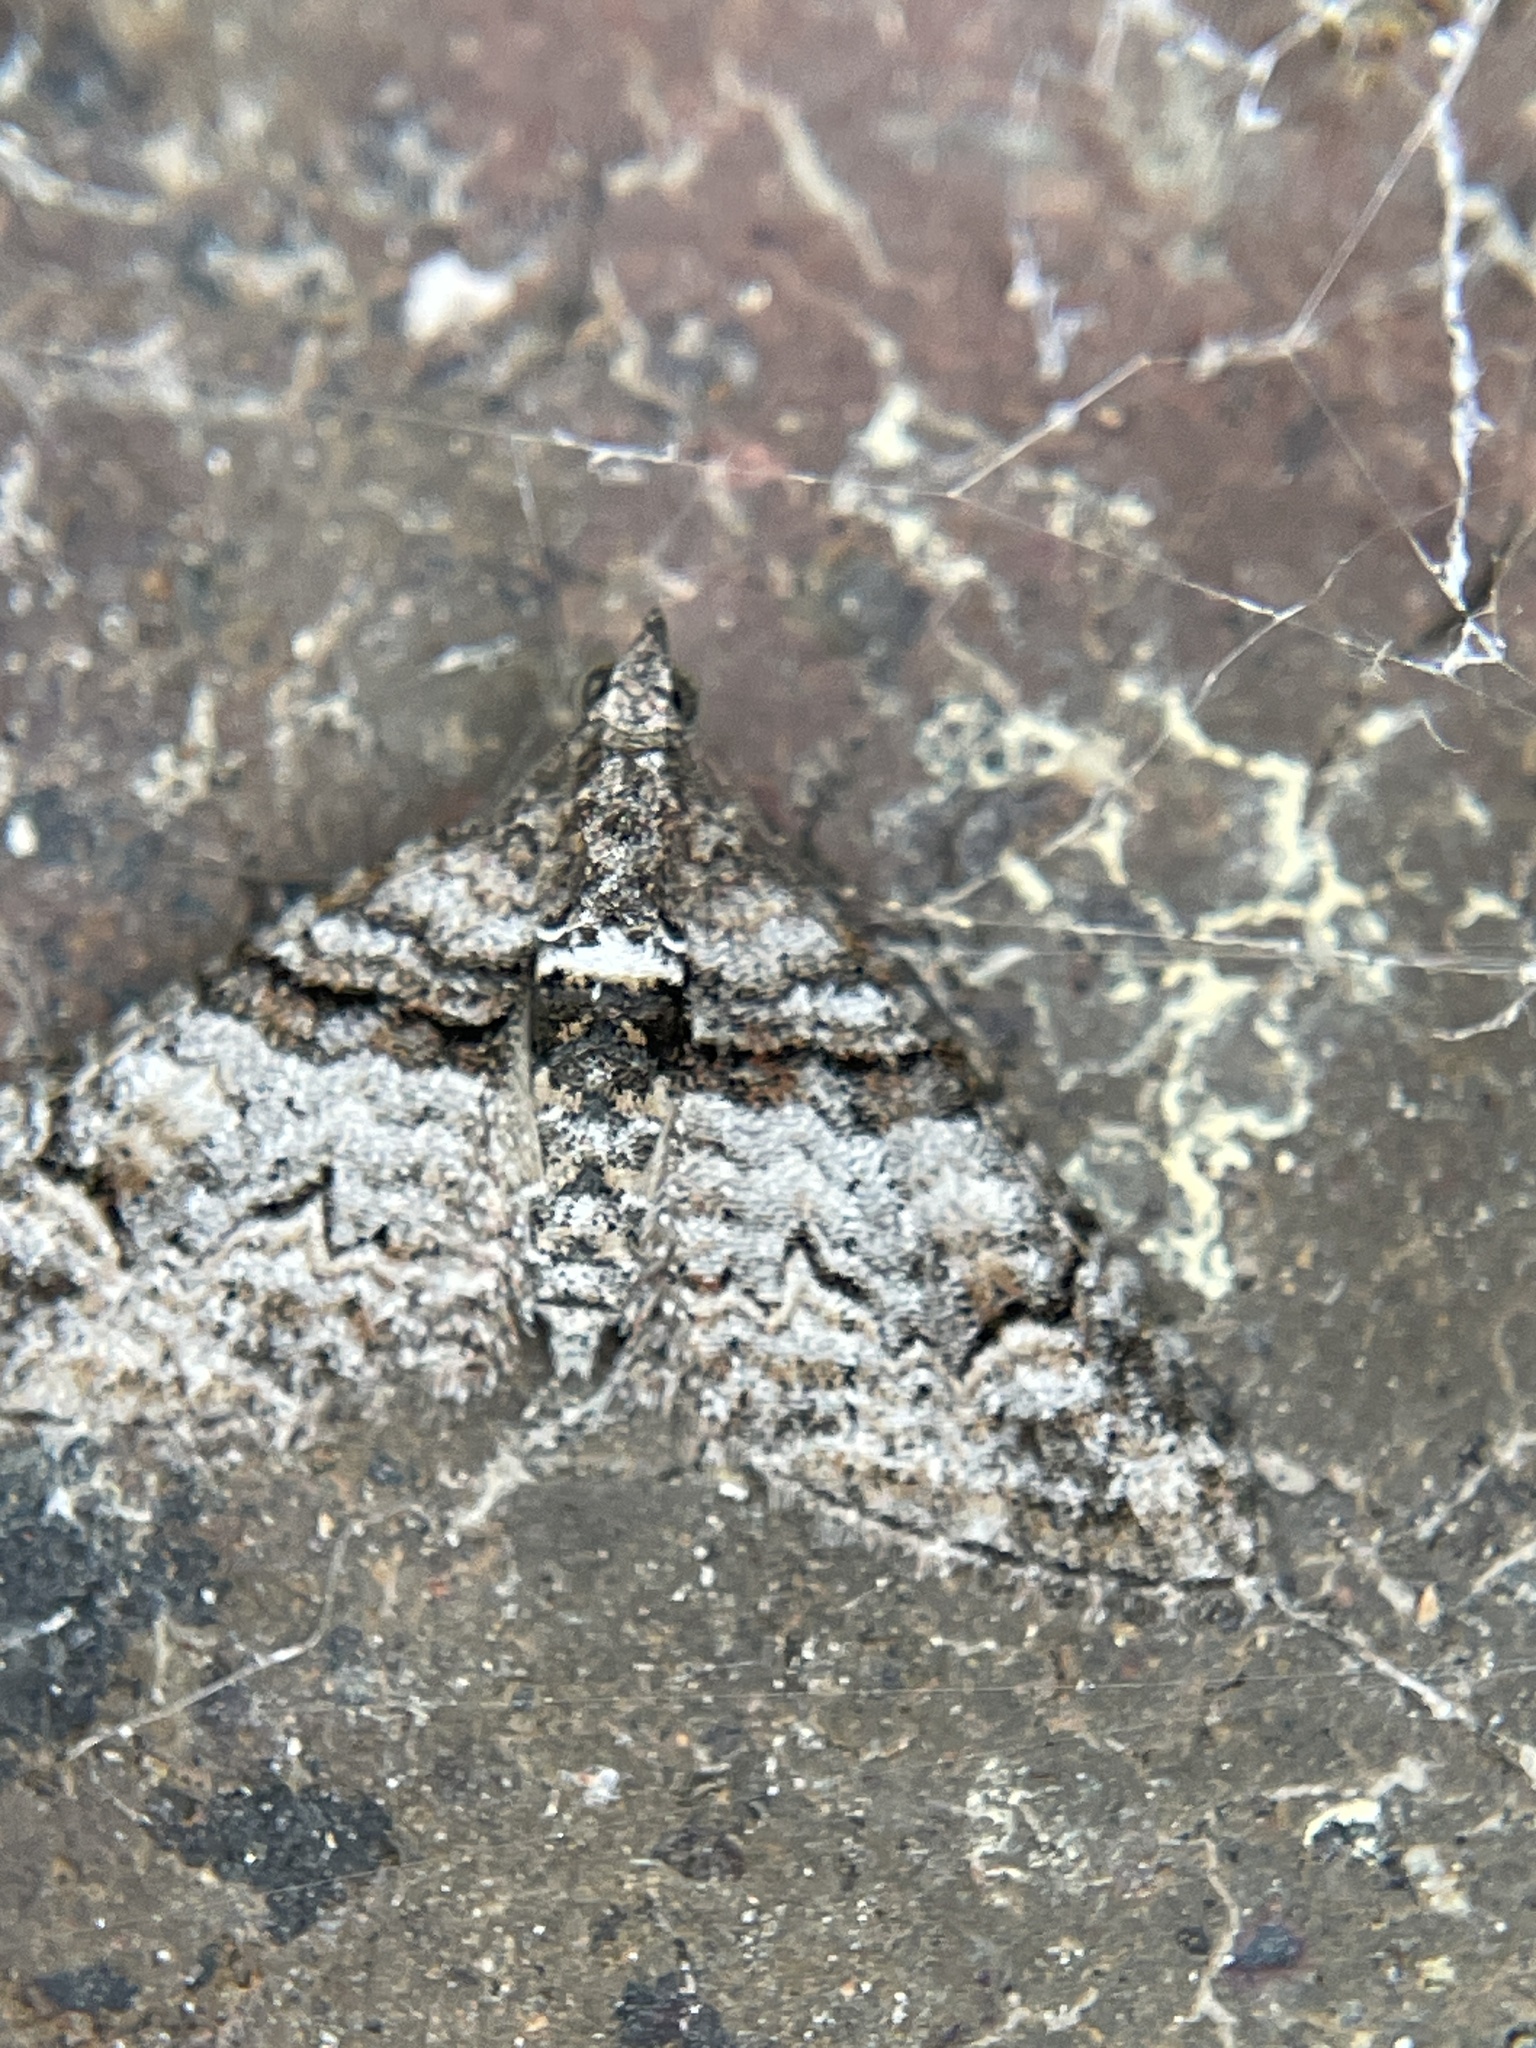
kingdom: Animalia
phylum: Arthropoda
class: Insecta
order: Lepidoptera
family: Geometridae
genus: Phrissogonus
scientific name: Phrissogonus laticostata
